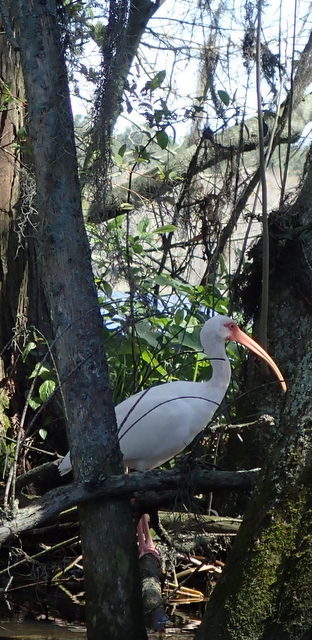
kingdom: Animalia
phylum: Chordata
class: Aves
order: Pelecaniformes
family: Threskiornithidae
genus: Eudocimus
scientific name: Eudocimus albus
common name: White ibis
